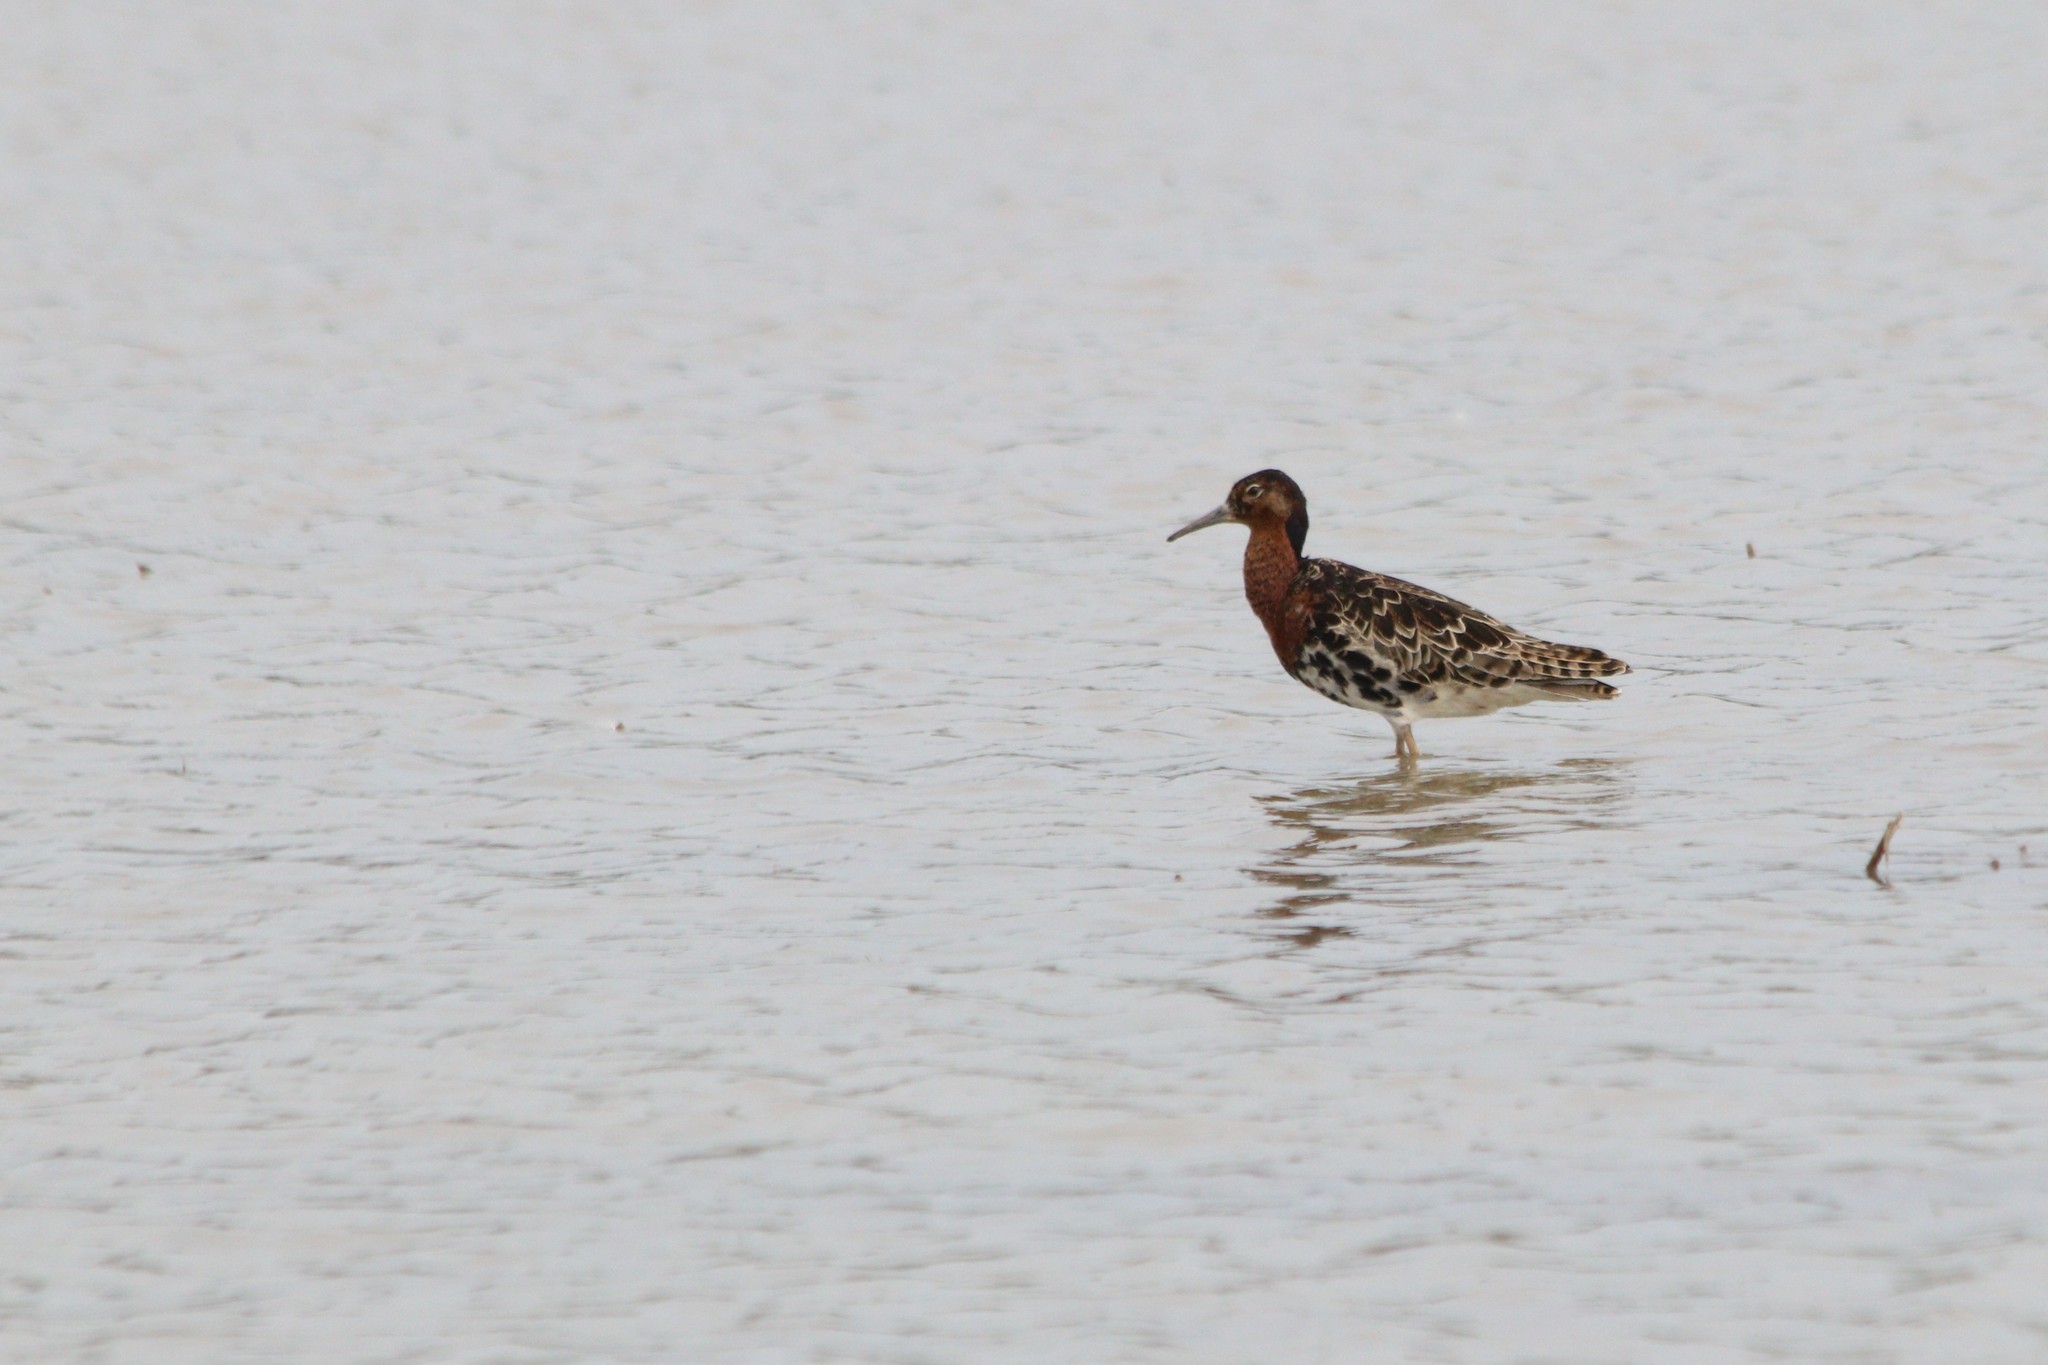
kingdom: Animalia
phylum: Chordata
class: Aves
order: Charadriiformes
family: Scolopacidae
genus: Calidris
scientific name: Calidris pugnax
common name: Ruff
